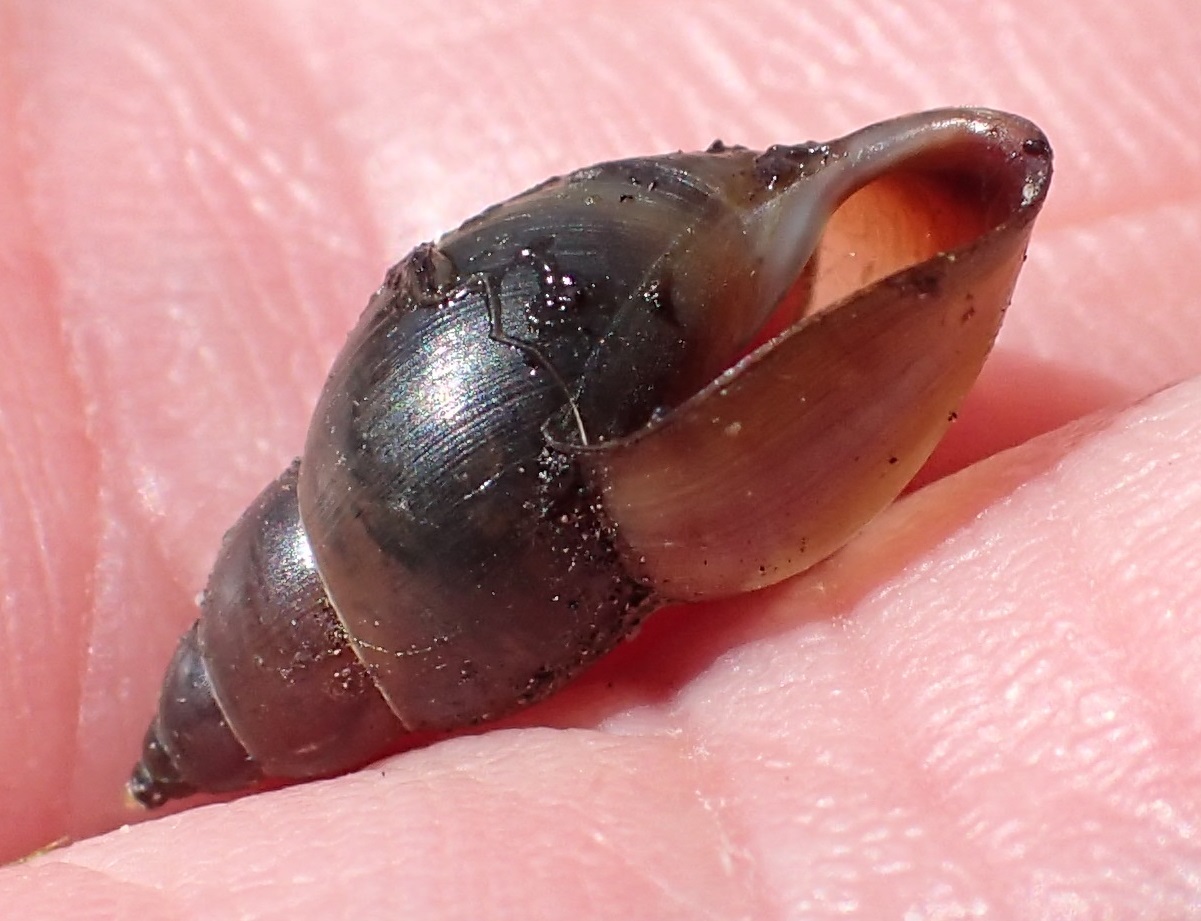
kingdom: Animalia
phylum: Mollusca
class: Gastropoda
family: Planorbidae
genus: Glyptophysa
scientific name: Glyptophysa novaehollandica
